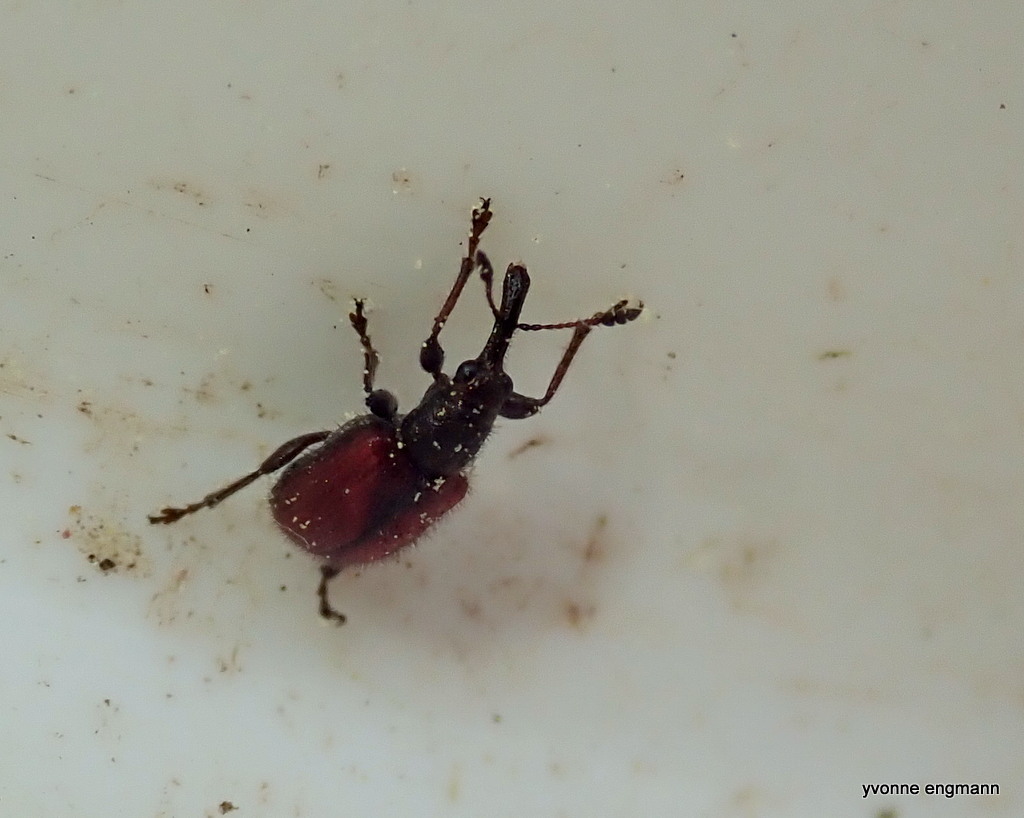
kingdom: Animalia
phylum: Arthropoda
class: Insecta
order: Coleoptera
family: Rhynchitidae
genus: Tatianaerhynchites
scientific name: Tatianaerhynchites aequatus
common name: Apple fruit rhynchites
